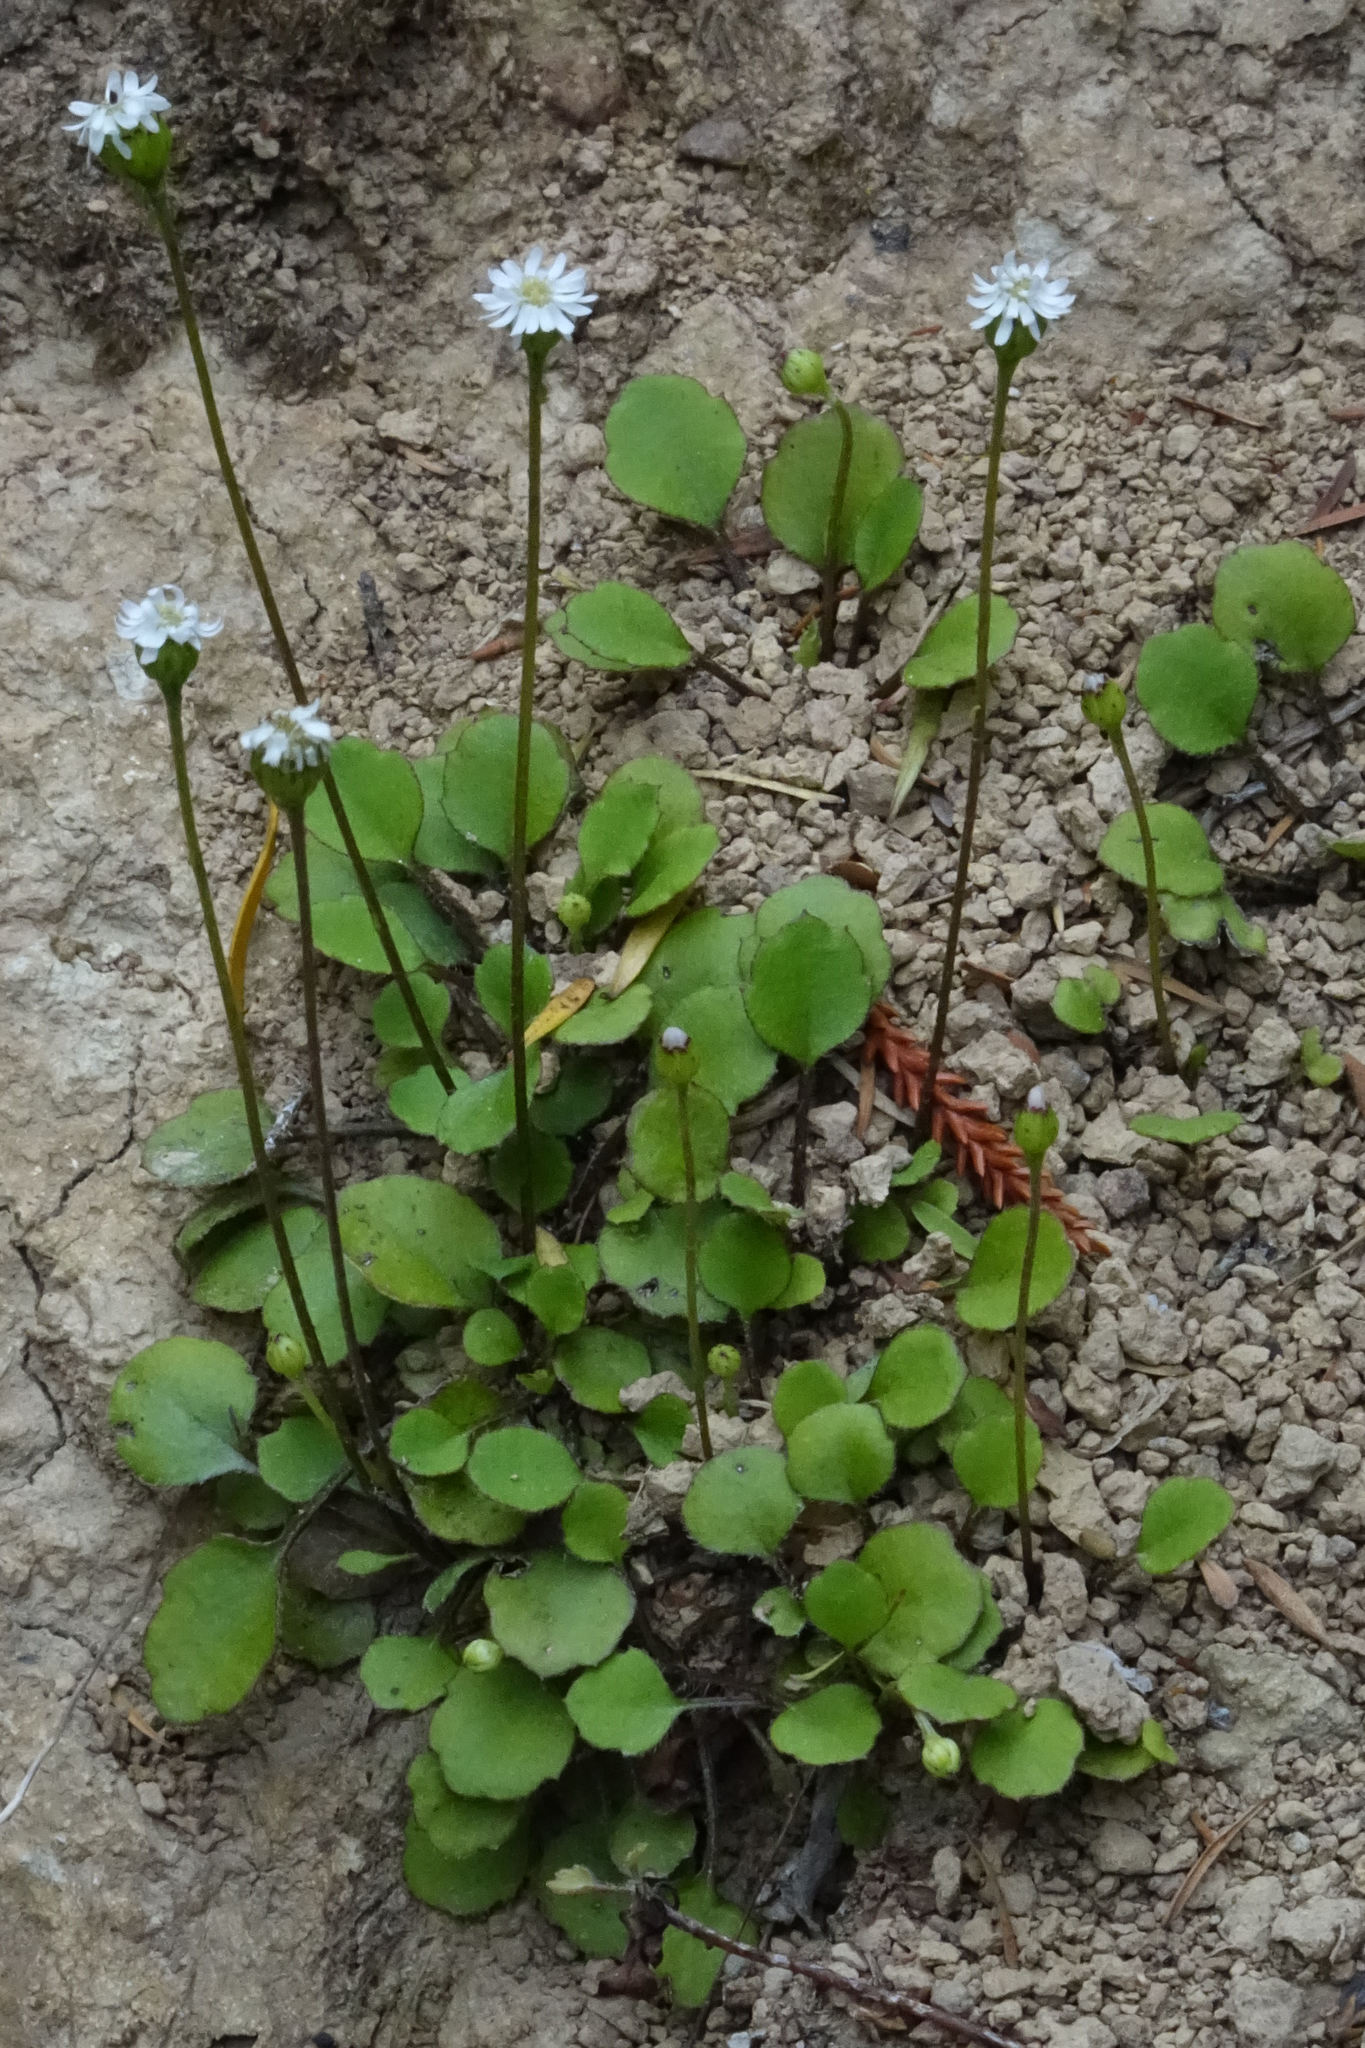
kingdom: Plantae
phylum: Tracheophyta
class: Magnoliopsida
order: Asterales
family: Asteraceae
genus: Lagenophora
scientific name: Lagenophora strangulata
